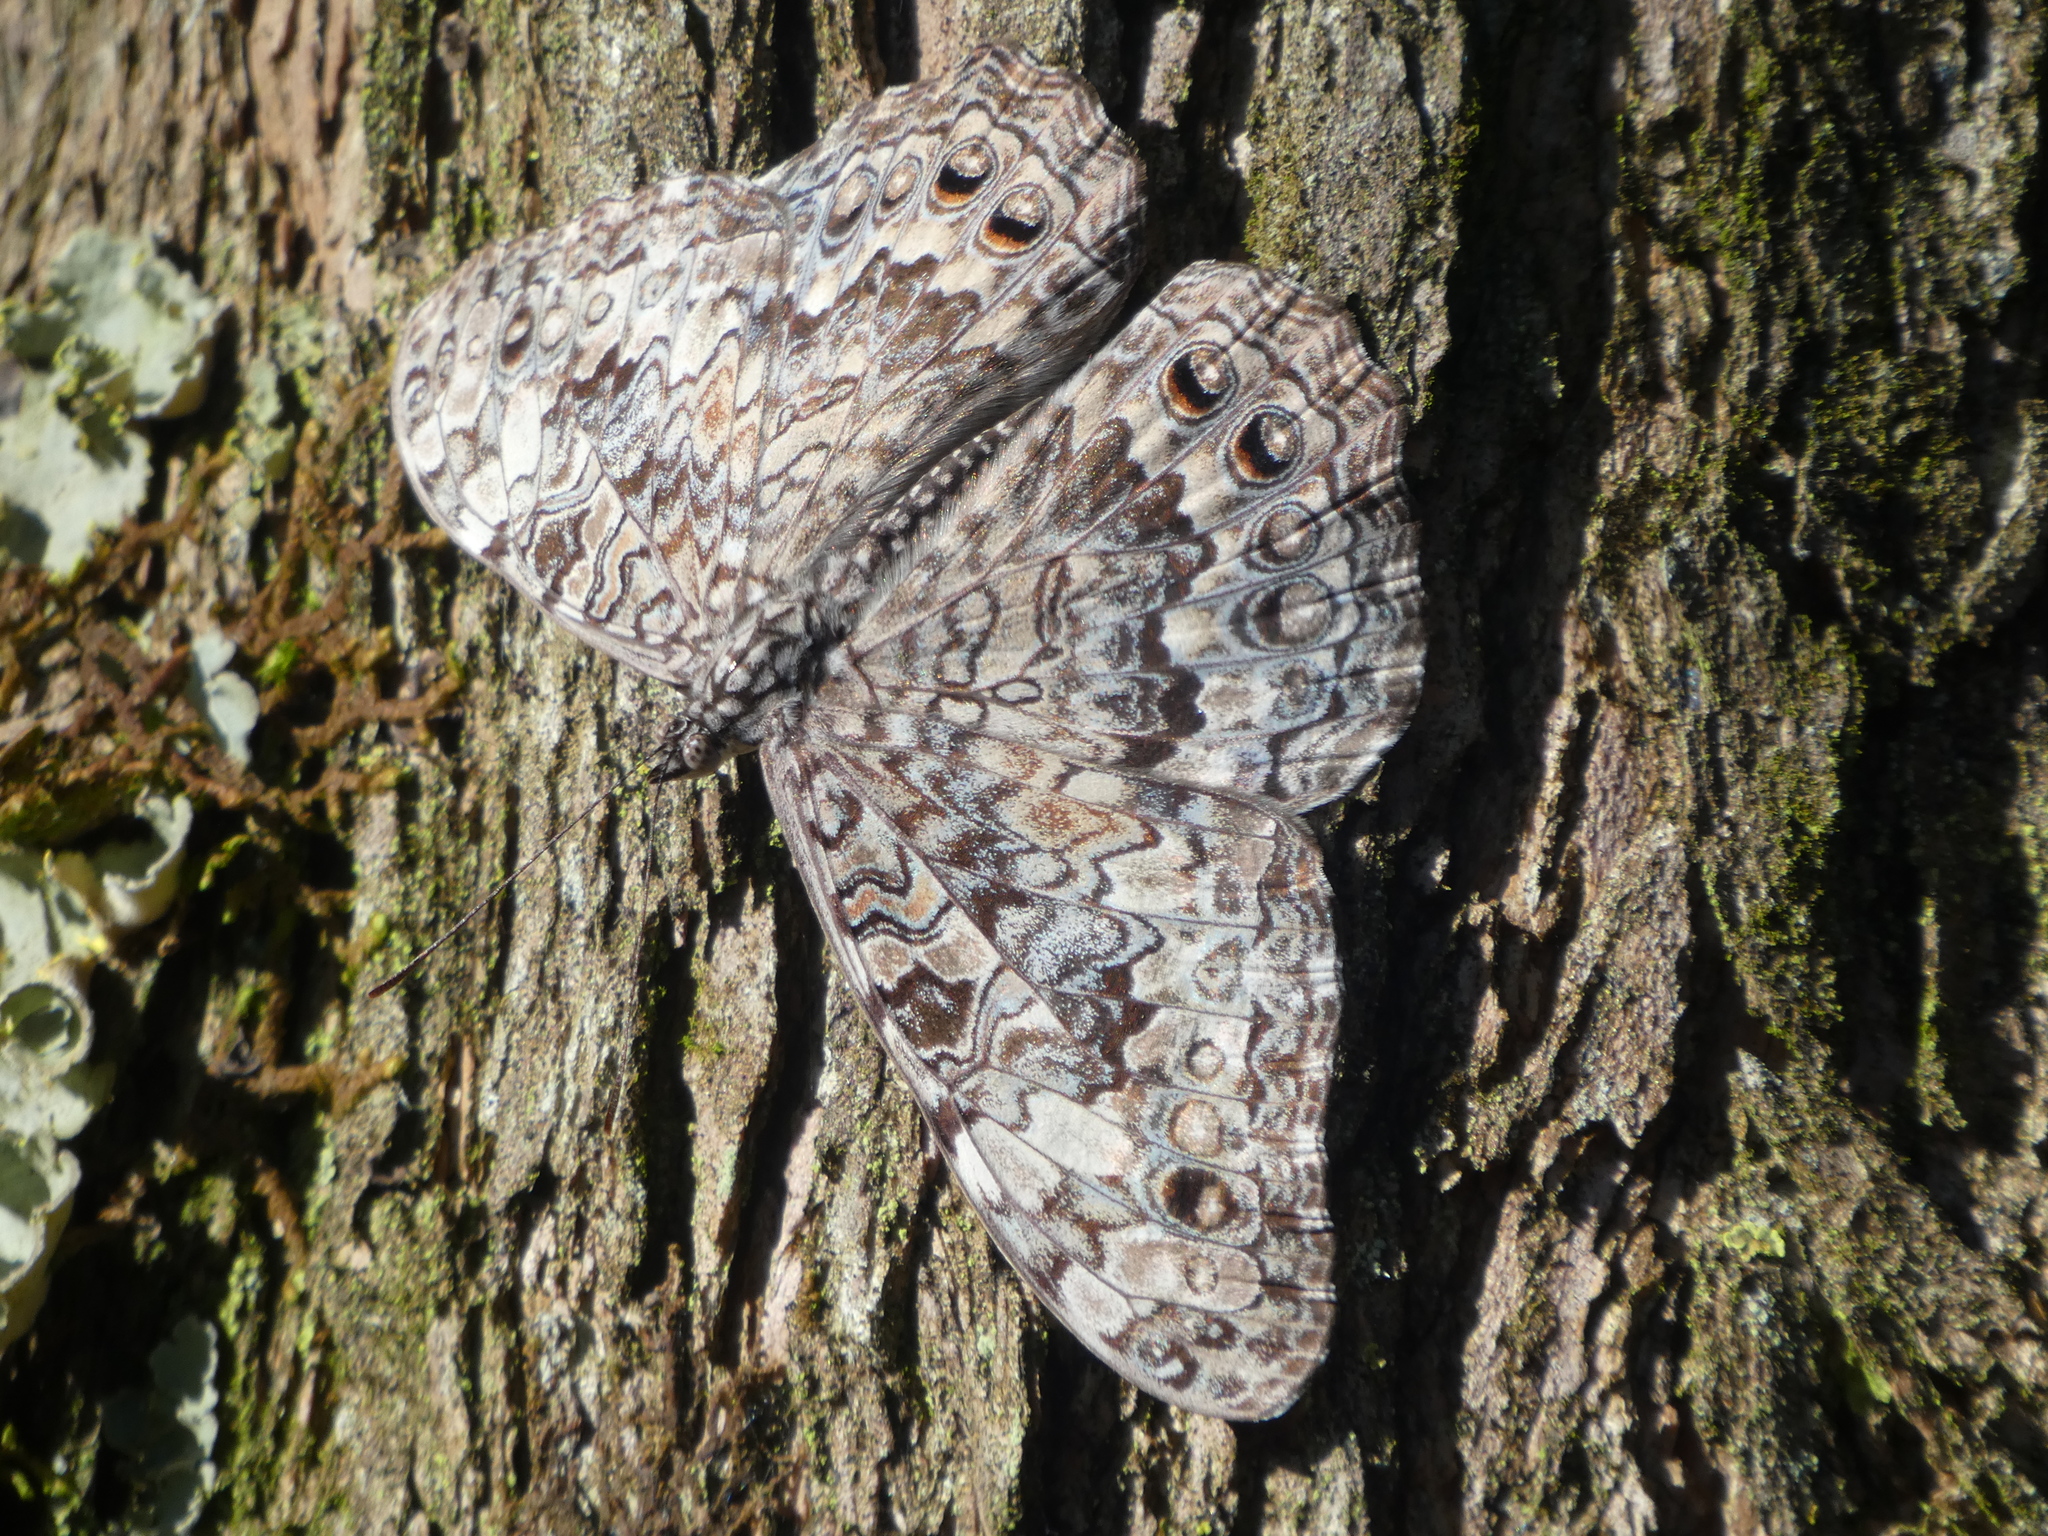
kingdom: Animalia
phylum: Arthropoda
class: Insecta
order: Lepidoptera
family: Nymphalidae
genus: Hamadryas
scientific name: Hamadryas februa
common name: Gray cracker
